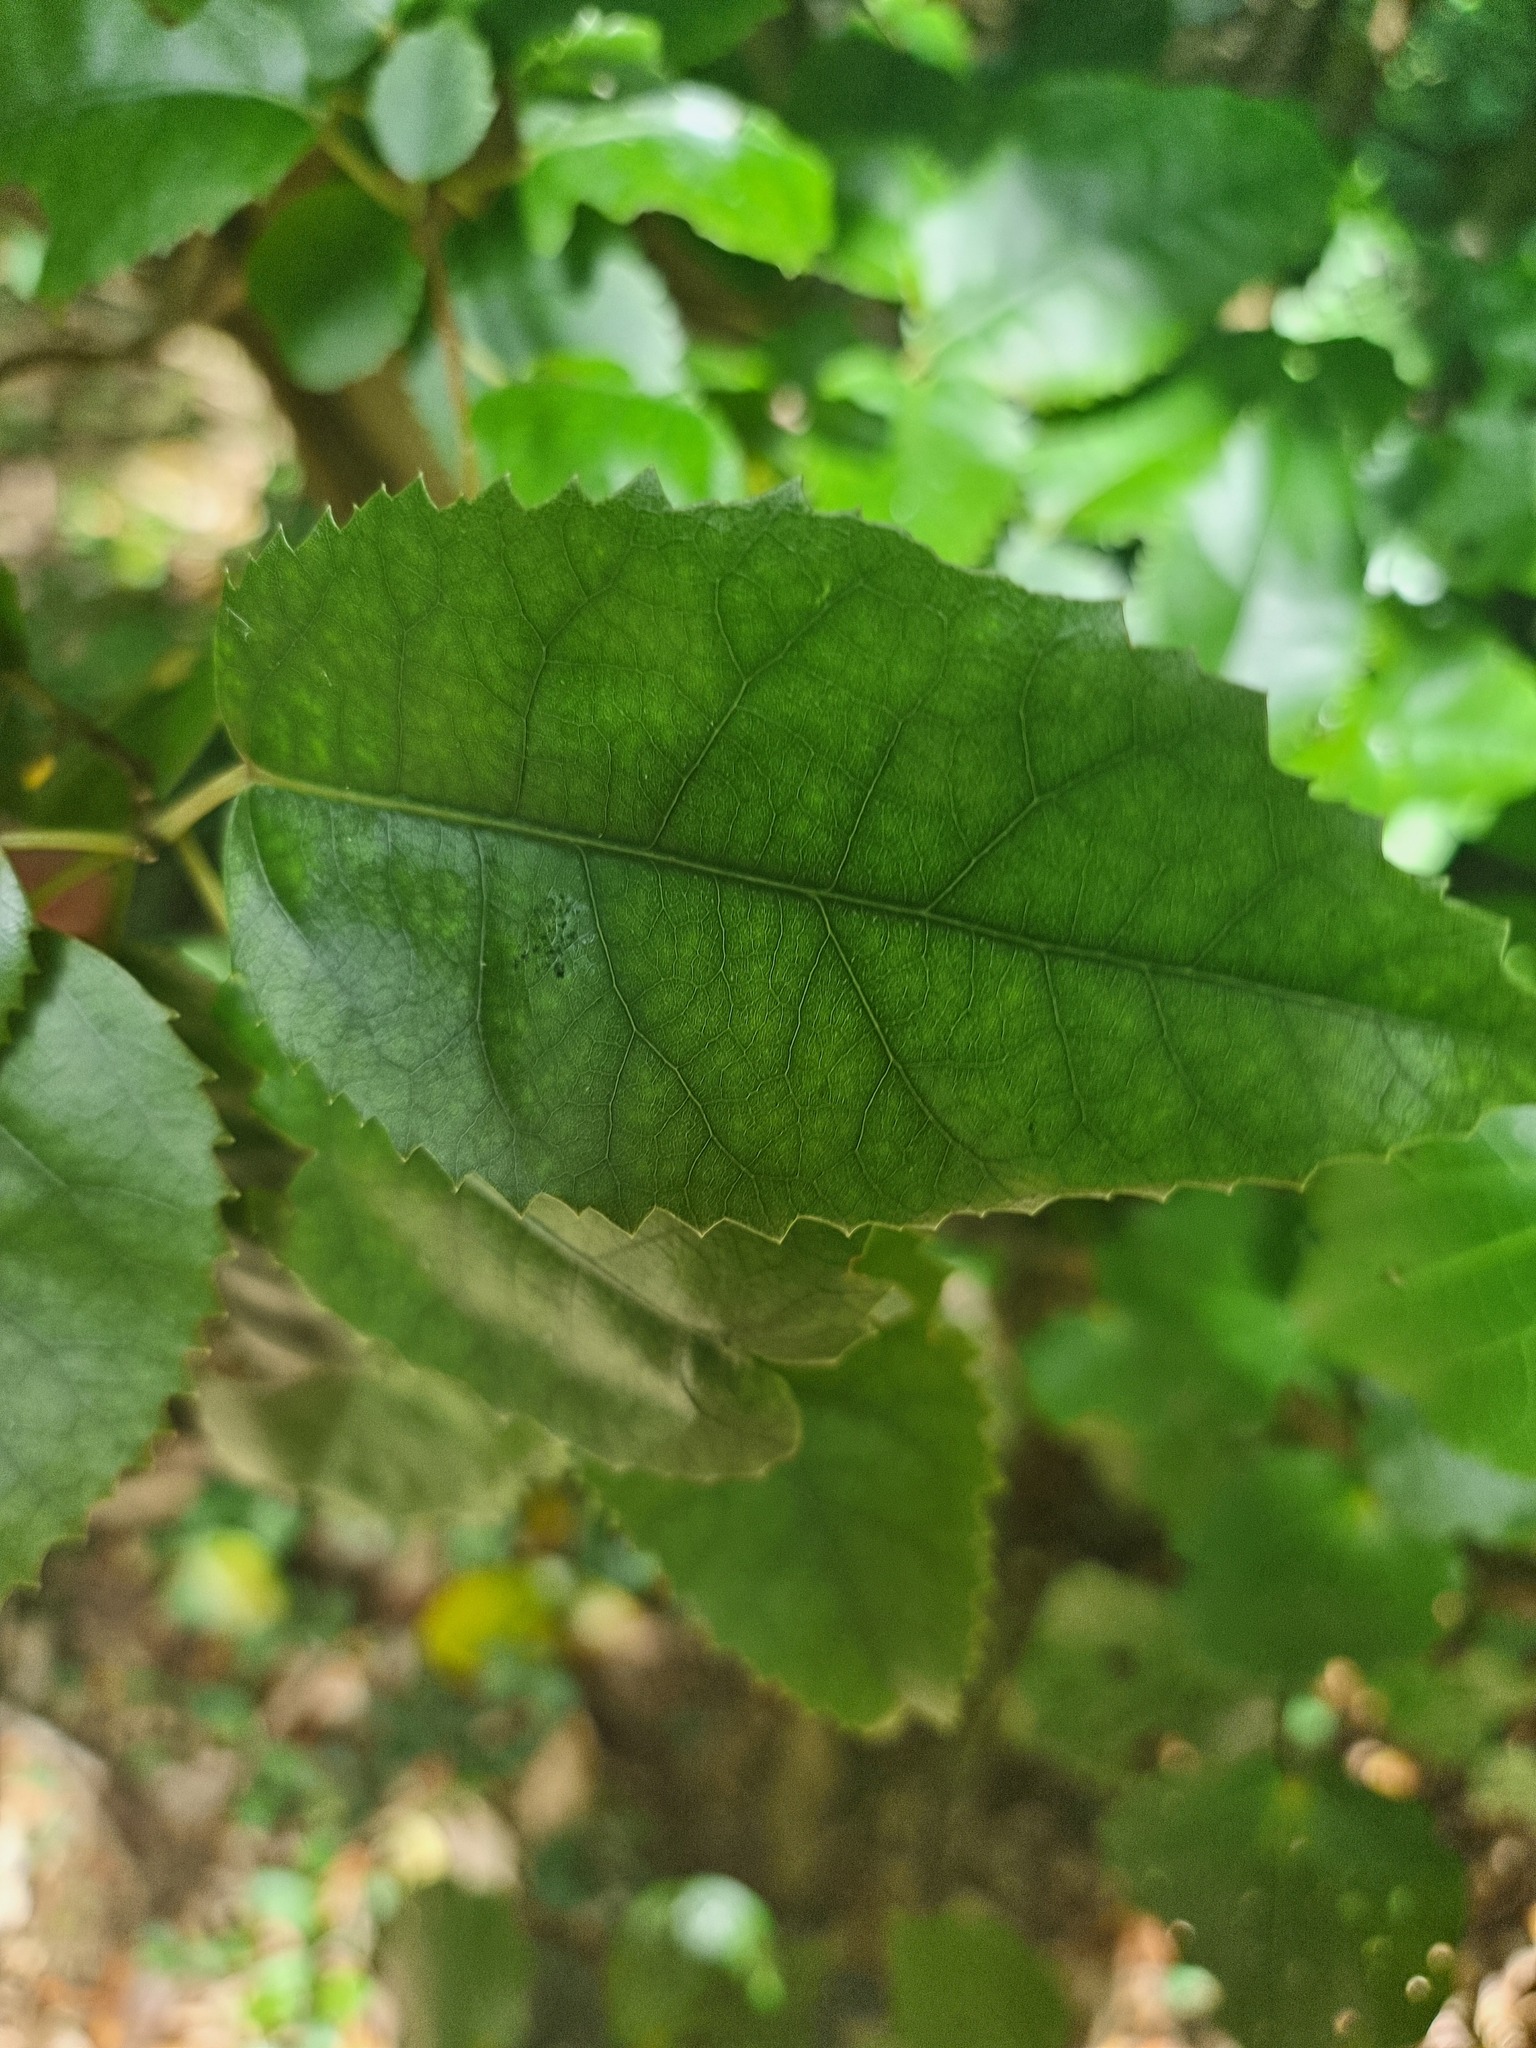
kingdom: Plantae
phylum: Tracheophyta
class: Magnoliopsida
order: Malvales
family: Malvaceae
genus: Hoheria
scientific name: Hoheria populnea
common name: Lacebark
